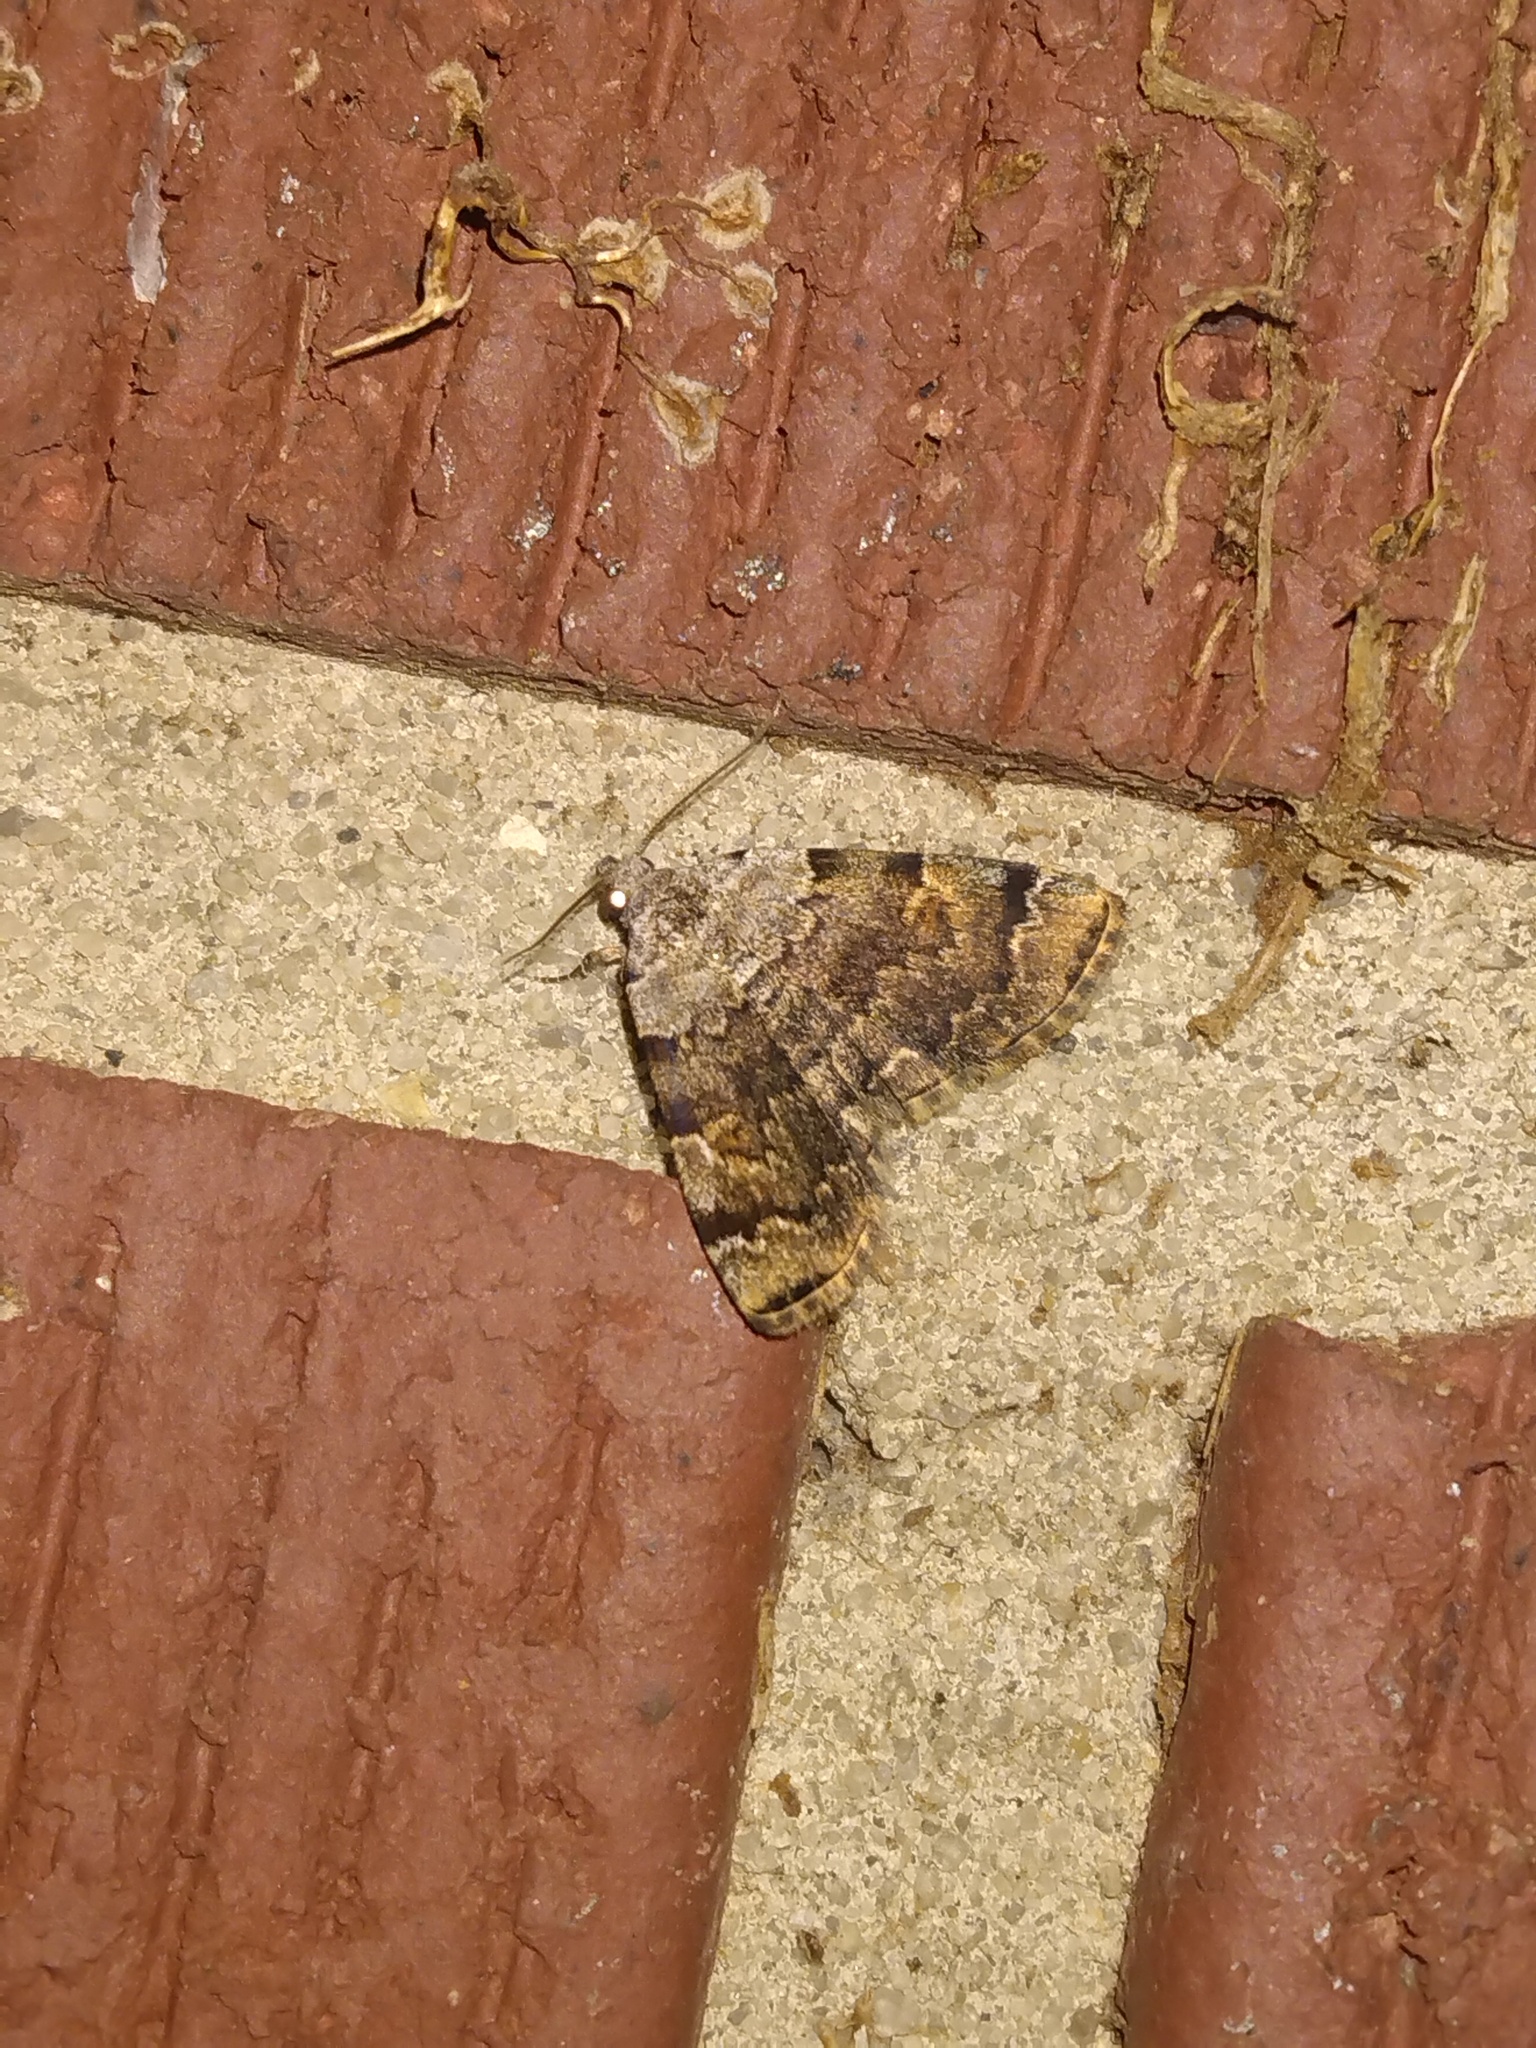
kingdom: Animalia
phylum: Arthropoda
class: Insecta
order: Lepidoptera
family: Erebidae
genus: Idia
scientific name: Idia americalis
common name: American idia moth
